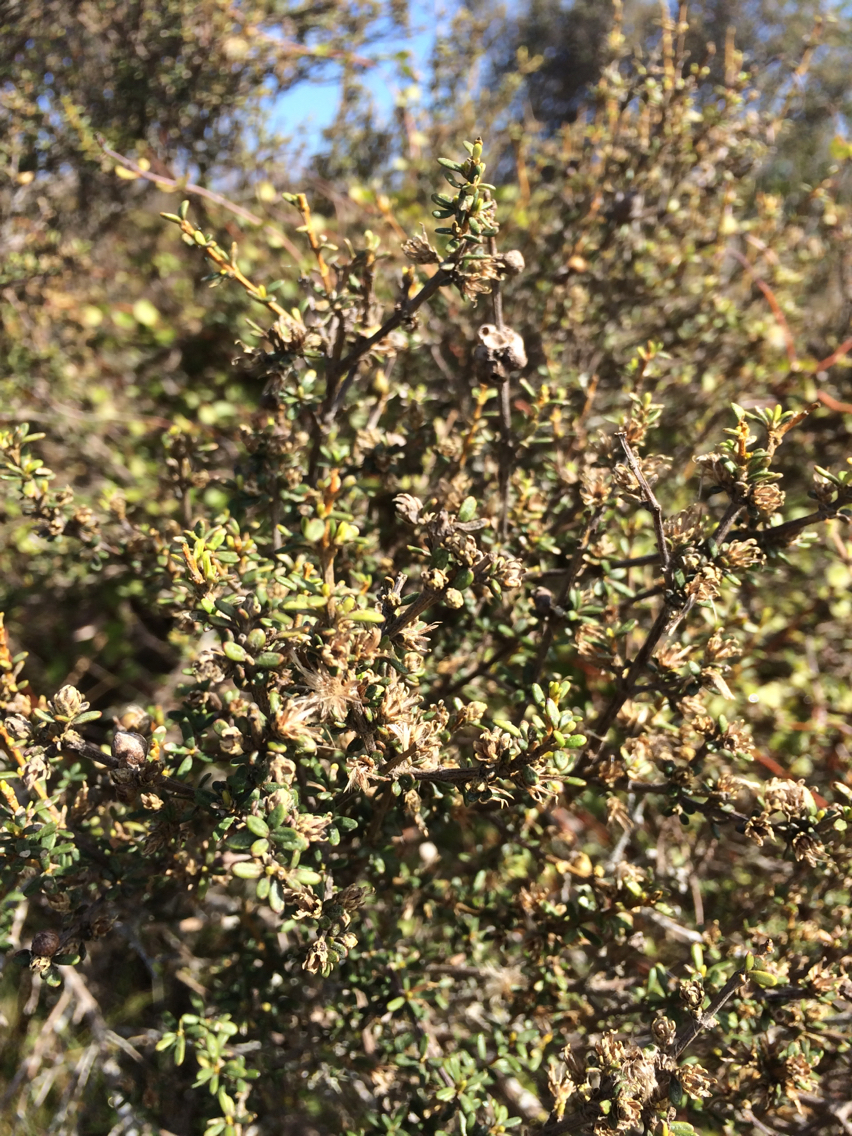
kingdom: Plantae
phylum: Tracheophyta
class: Magnoliopsida
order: Asterales
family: Asteraceae
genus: Olearia
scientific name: Olearia solandri
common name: Coastal daisybush
